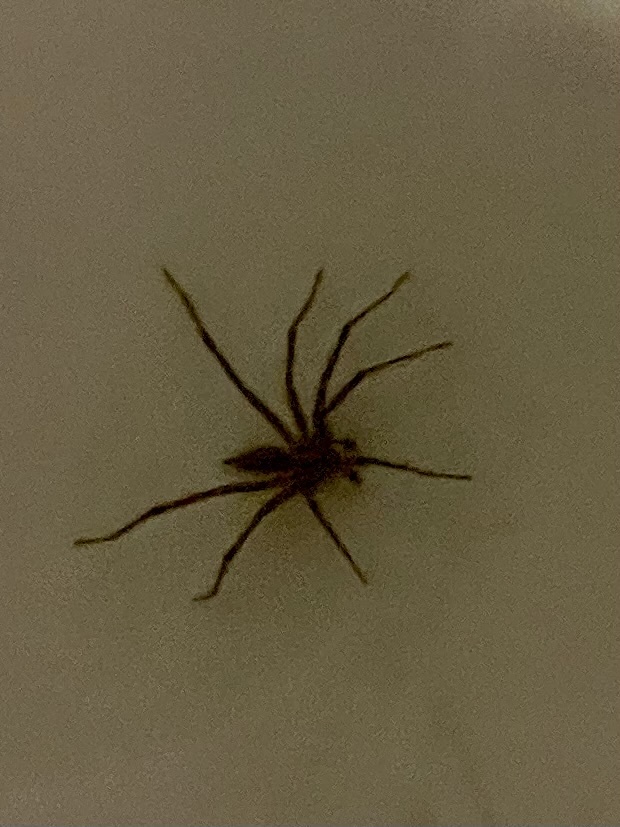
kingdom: Animalia
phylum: Arthropoda
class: Arachnida
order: Araneae
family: Agelenidae
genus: Agelenopsis
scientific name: Agelenopsis
